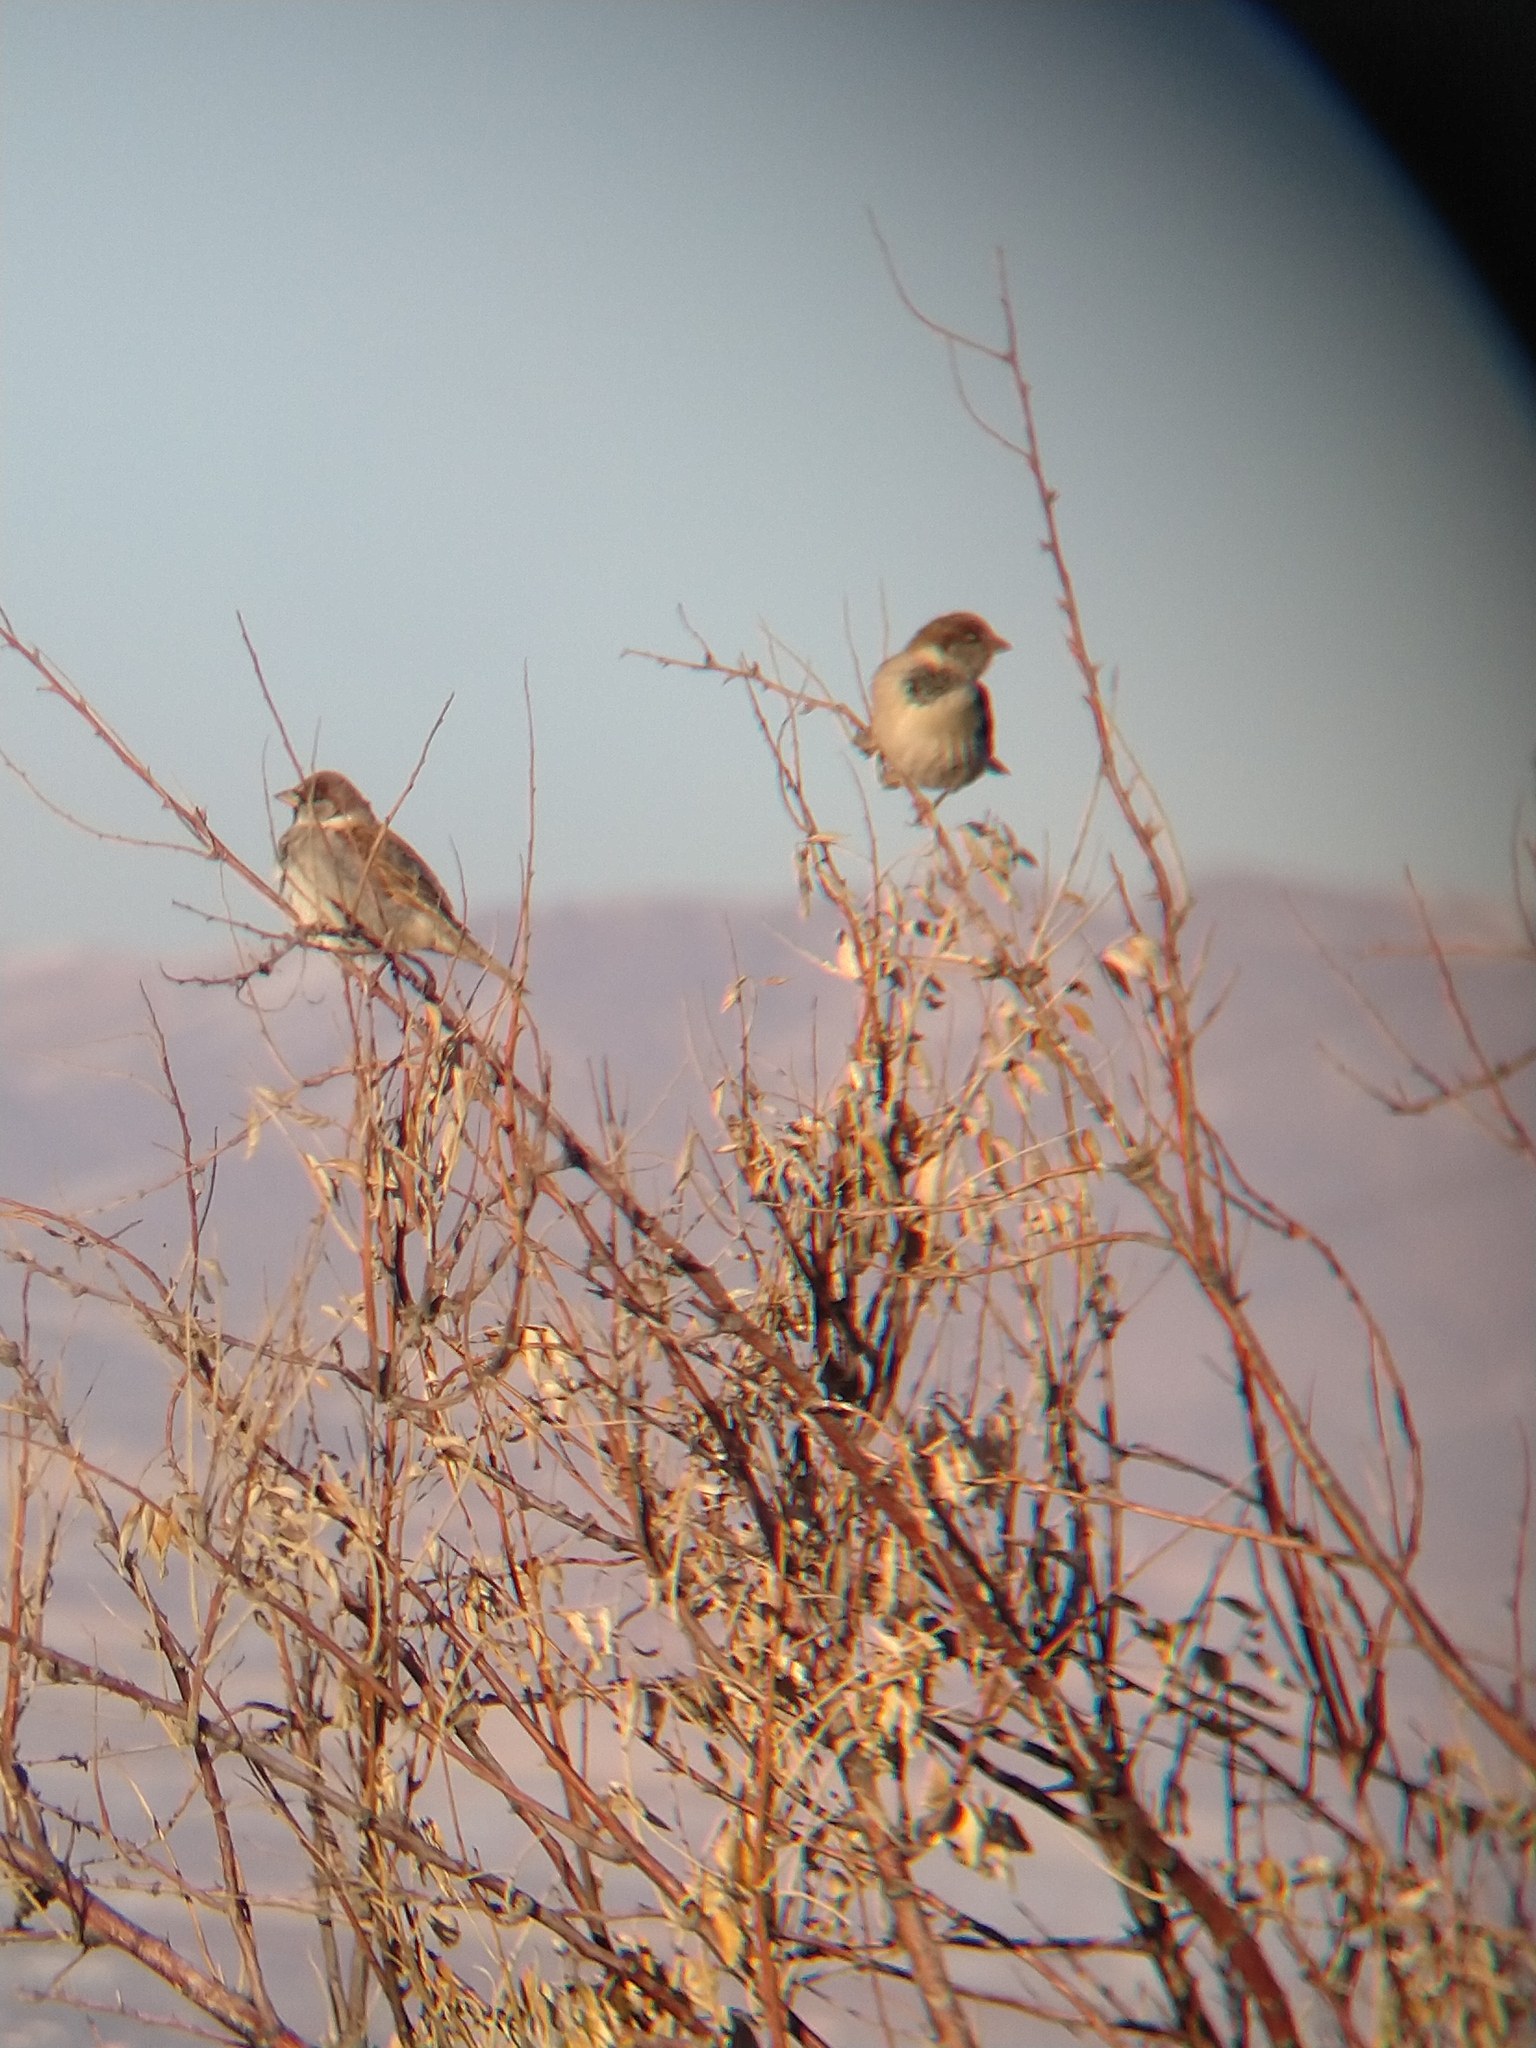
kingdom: Animalia
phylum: Chordata
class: Aves
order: Passeriformes
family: Passeridae
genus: Passer
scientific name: Passer domesticus
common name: House sparrow
